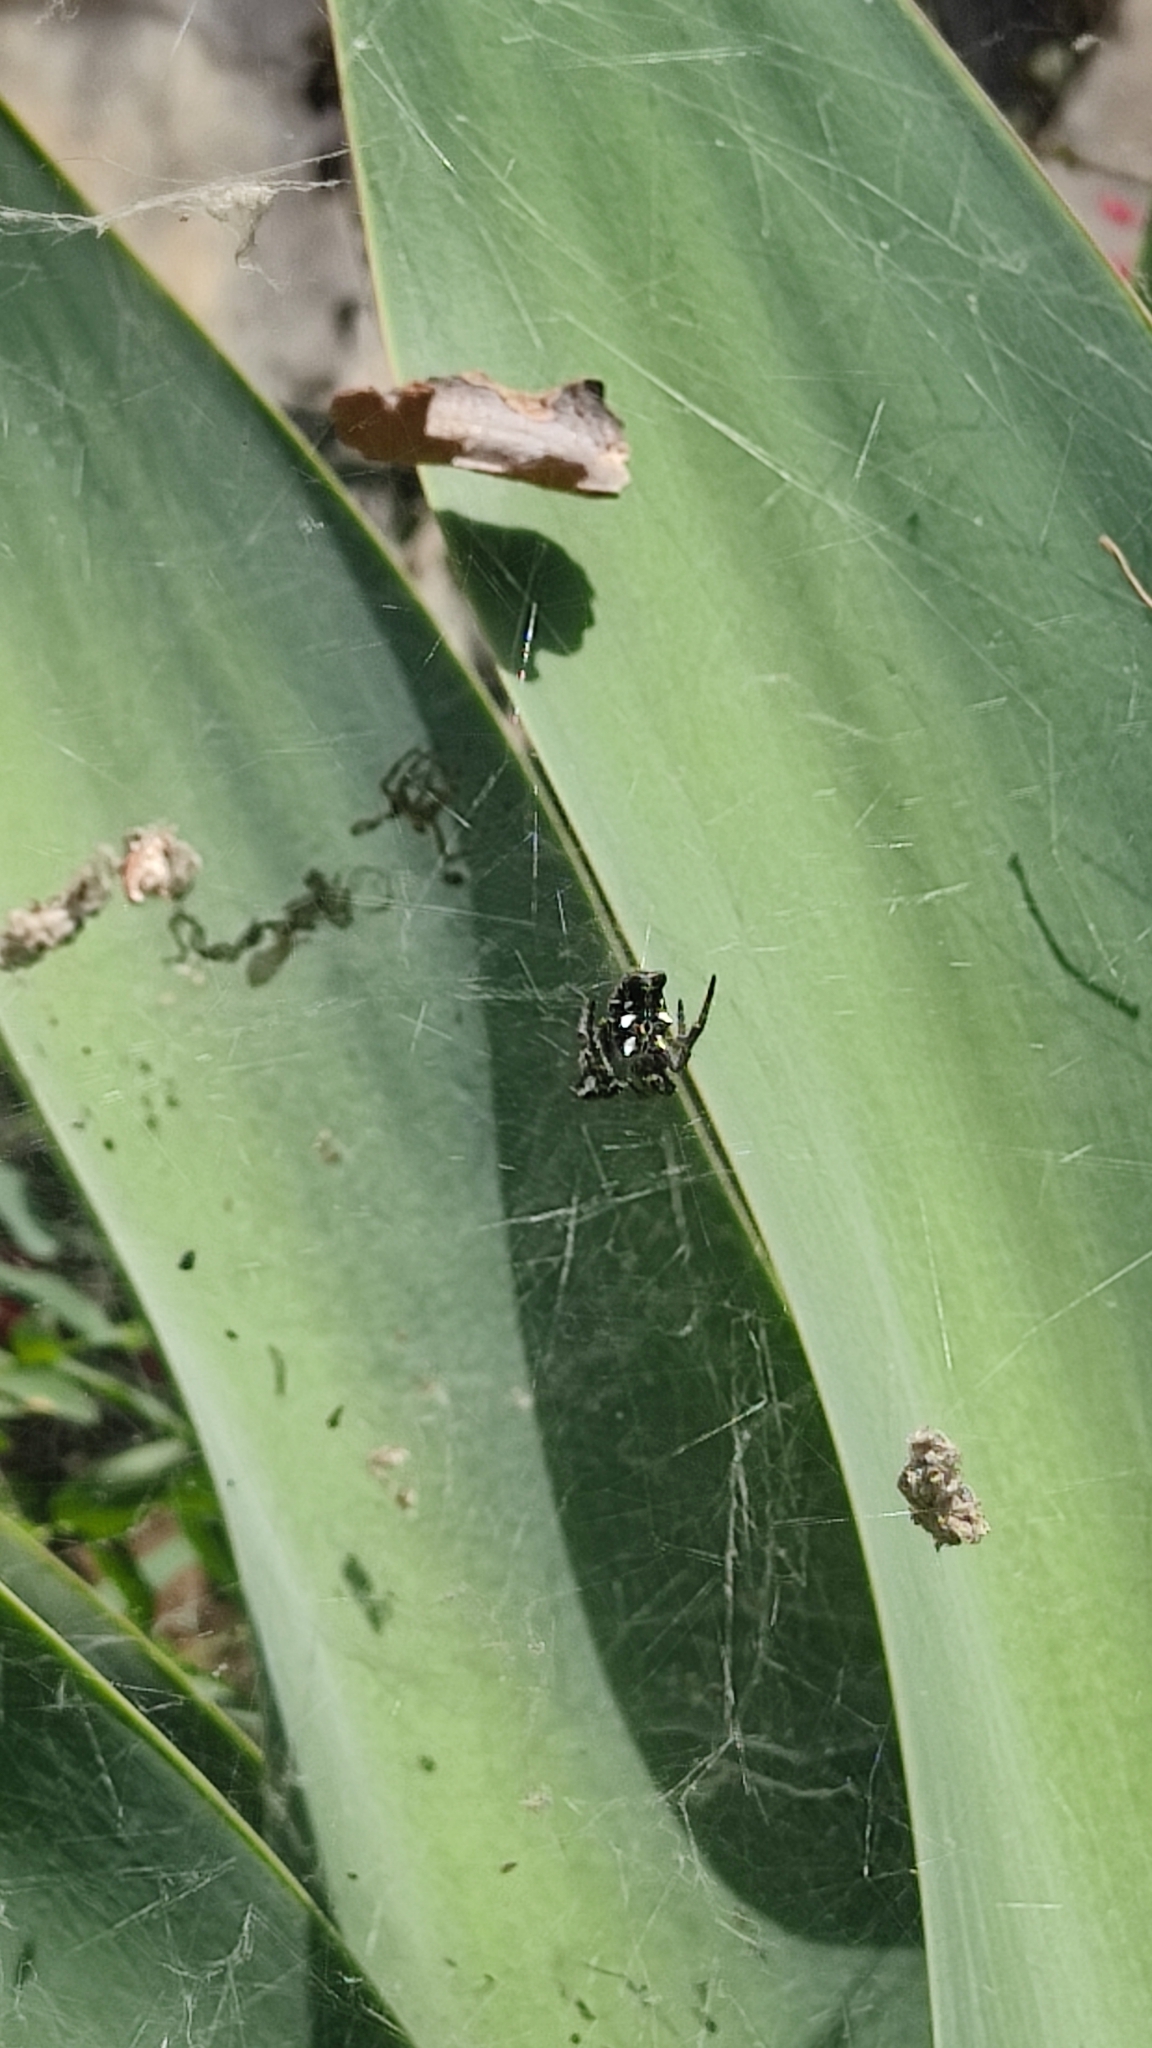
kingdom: Animalia
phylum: Arthropoda
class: Arachnida
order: Araneae
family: Araneidae
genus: Cyrtophora
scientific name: Cyrtophora citricola
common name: Orb weavers
